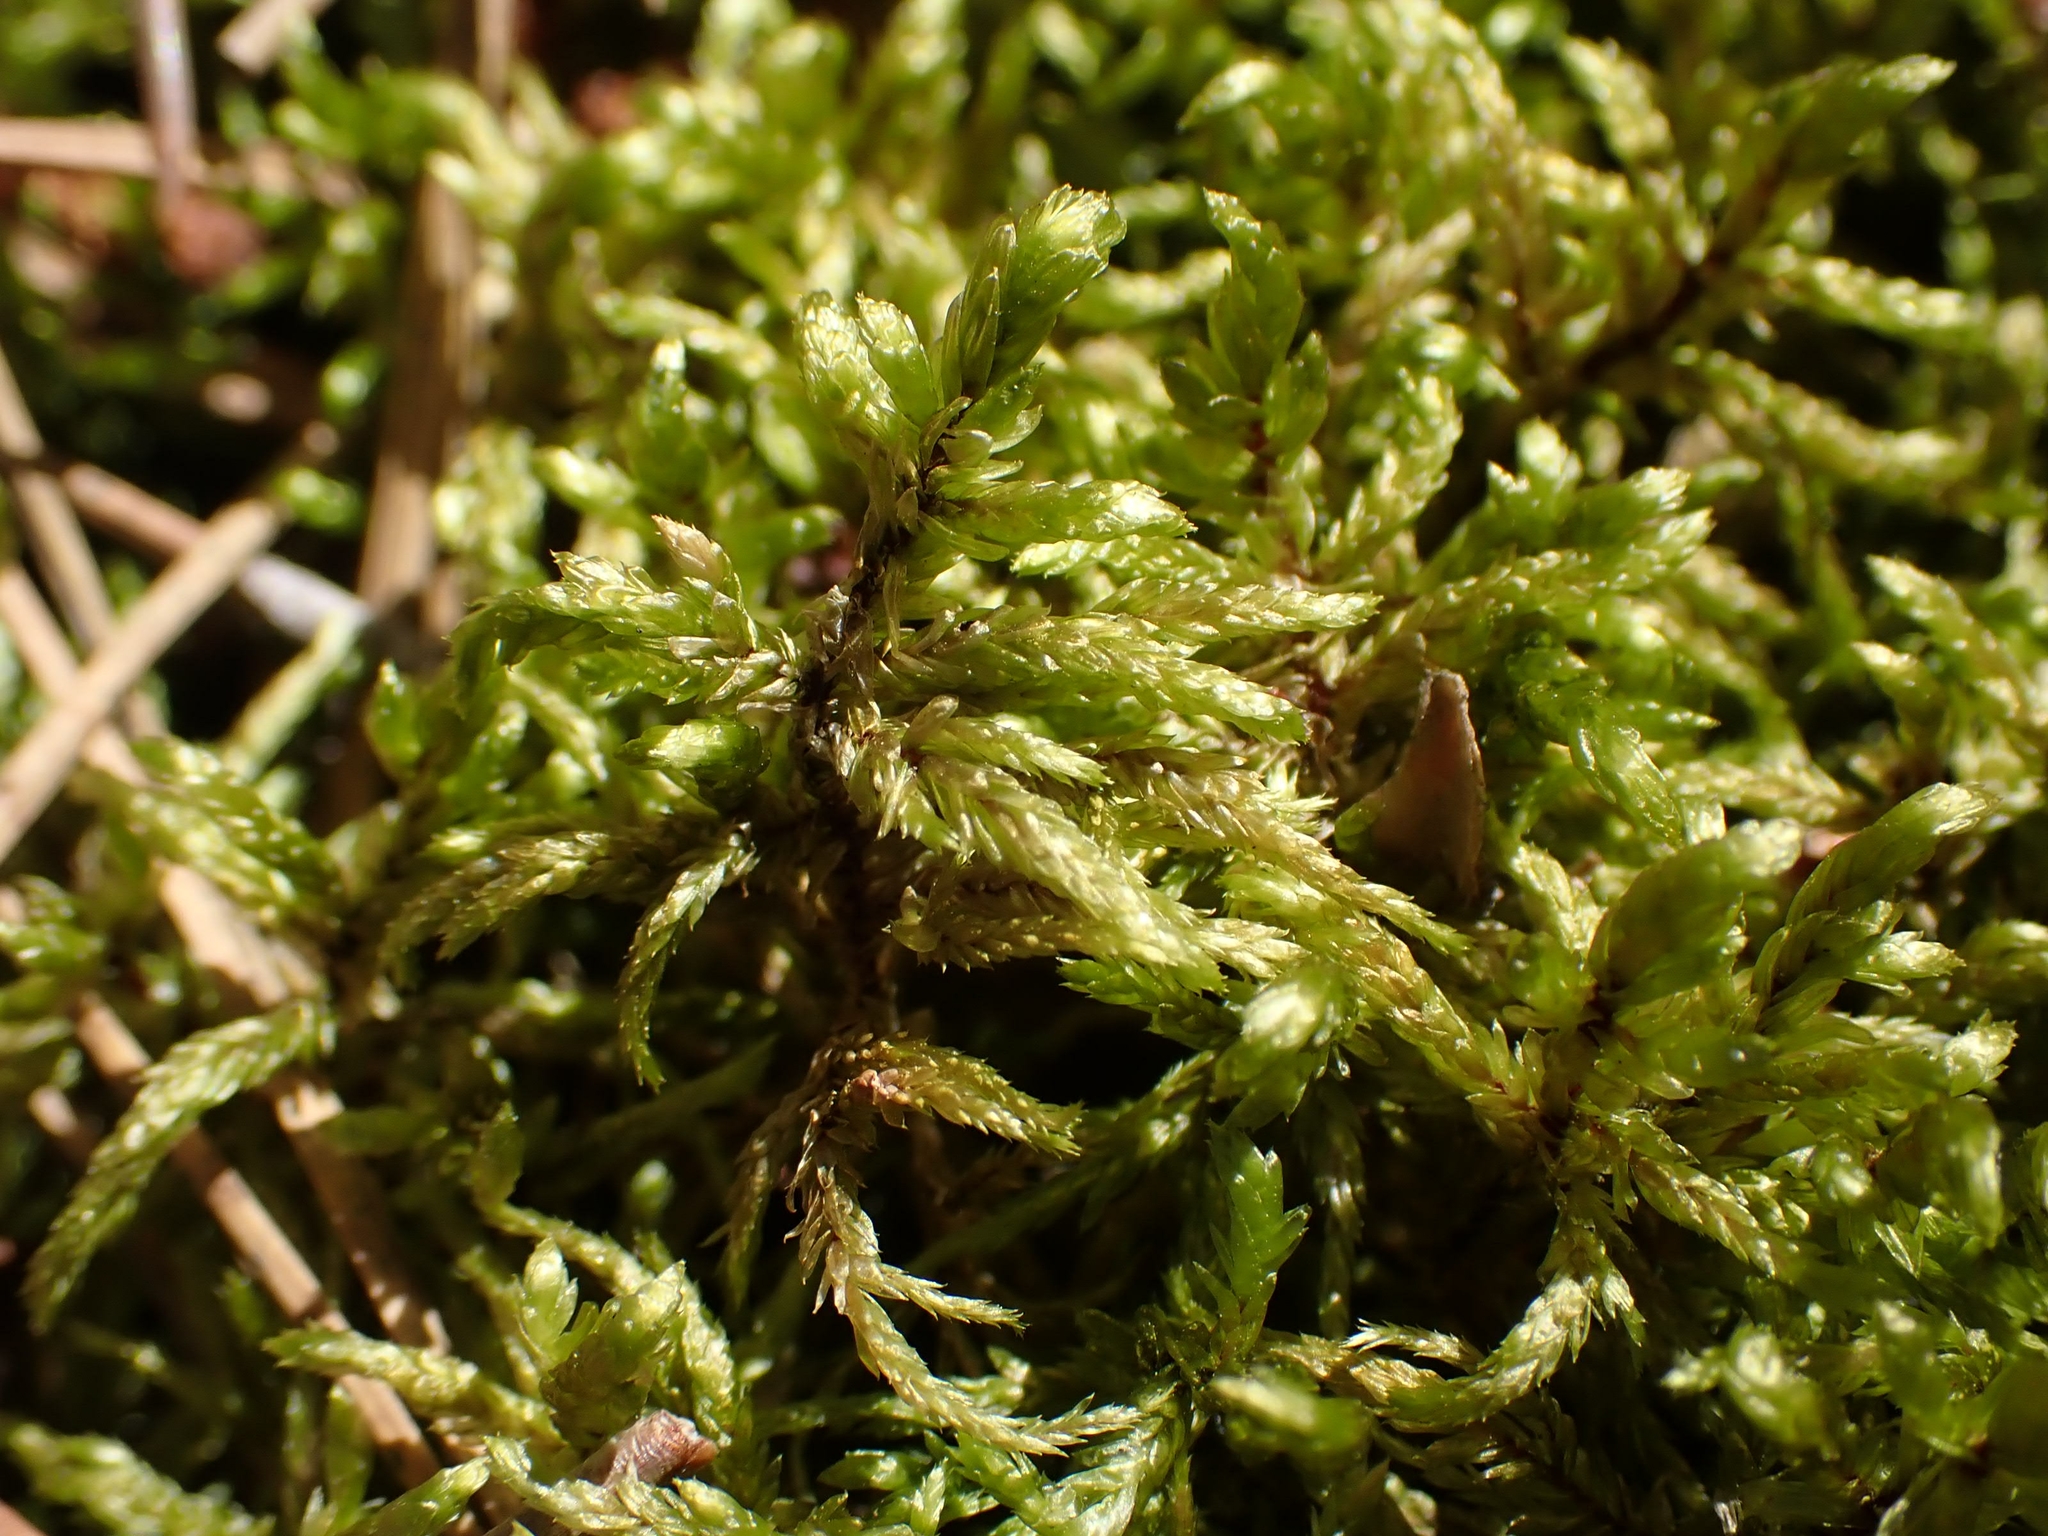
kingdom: Plantae
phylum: Bryophyta
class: Bryopsida
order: Hypnales
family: Hylocomiaceae
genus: Pleurozium
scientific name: Pleurozium schreberi
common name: Red-stemmed feather moss
